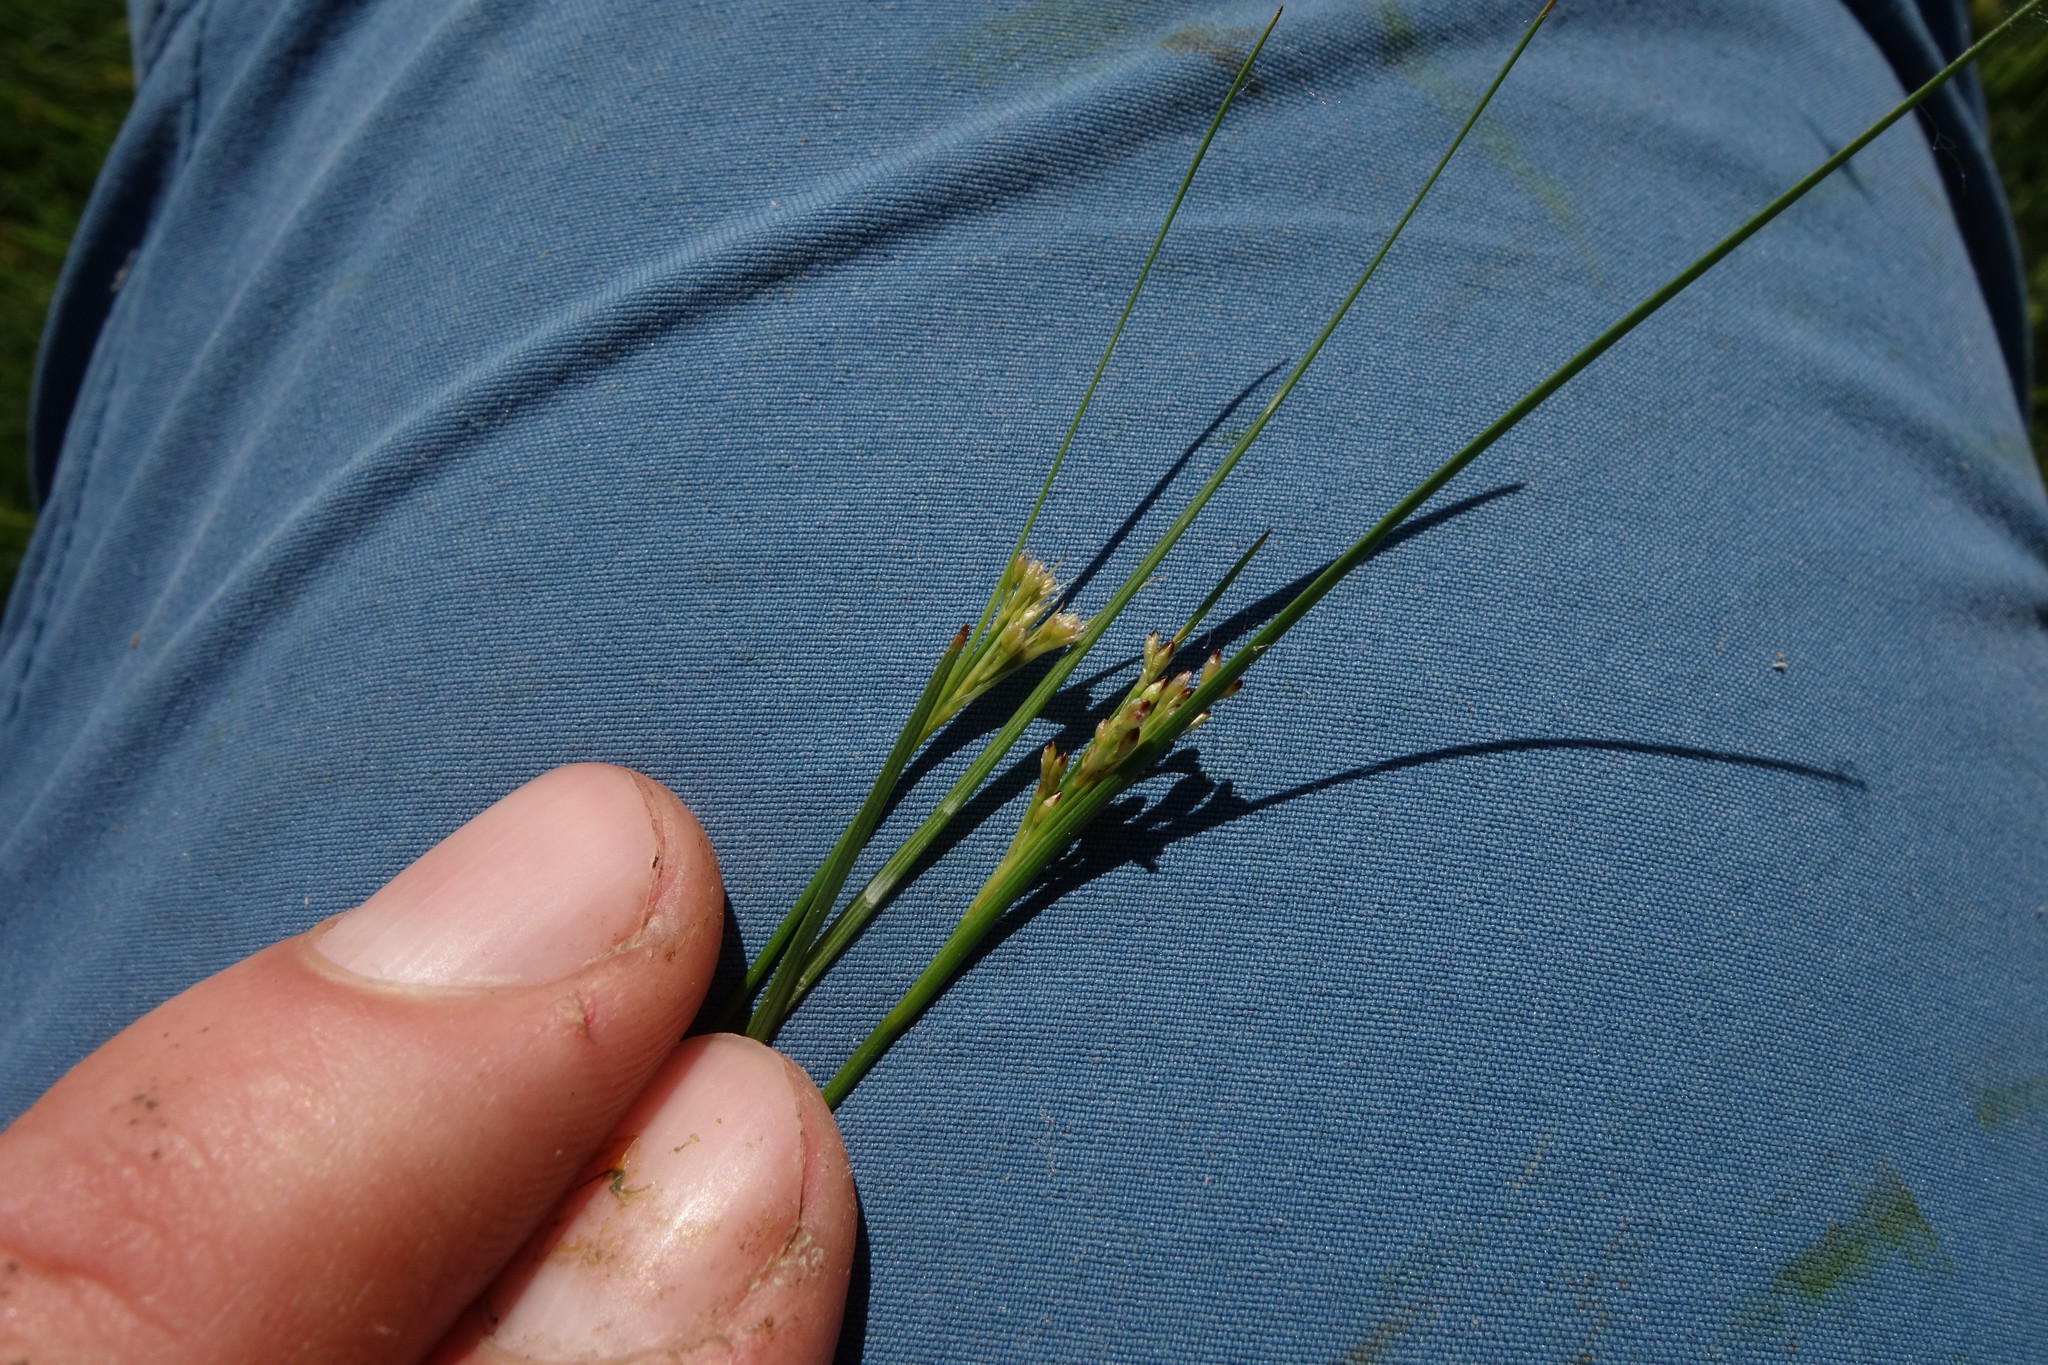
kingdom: Plantae
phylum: Tracheophyta
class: Liliopsida
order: Poales
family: Juncaceae
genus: Juncus
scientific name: Juncus compressus
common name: Round-fruited rush
